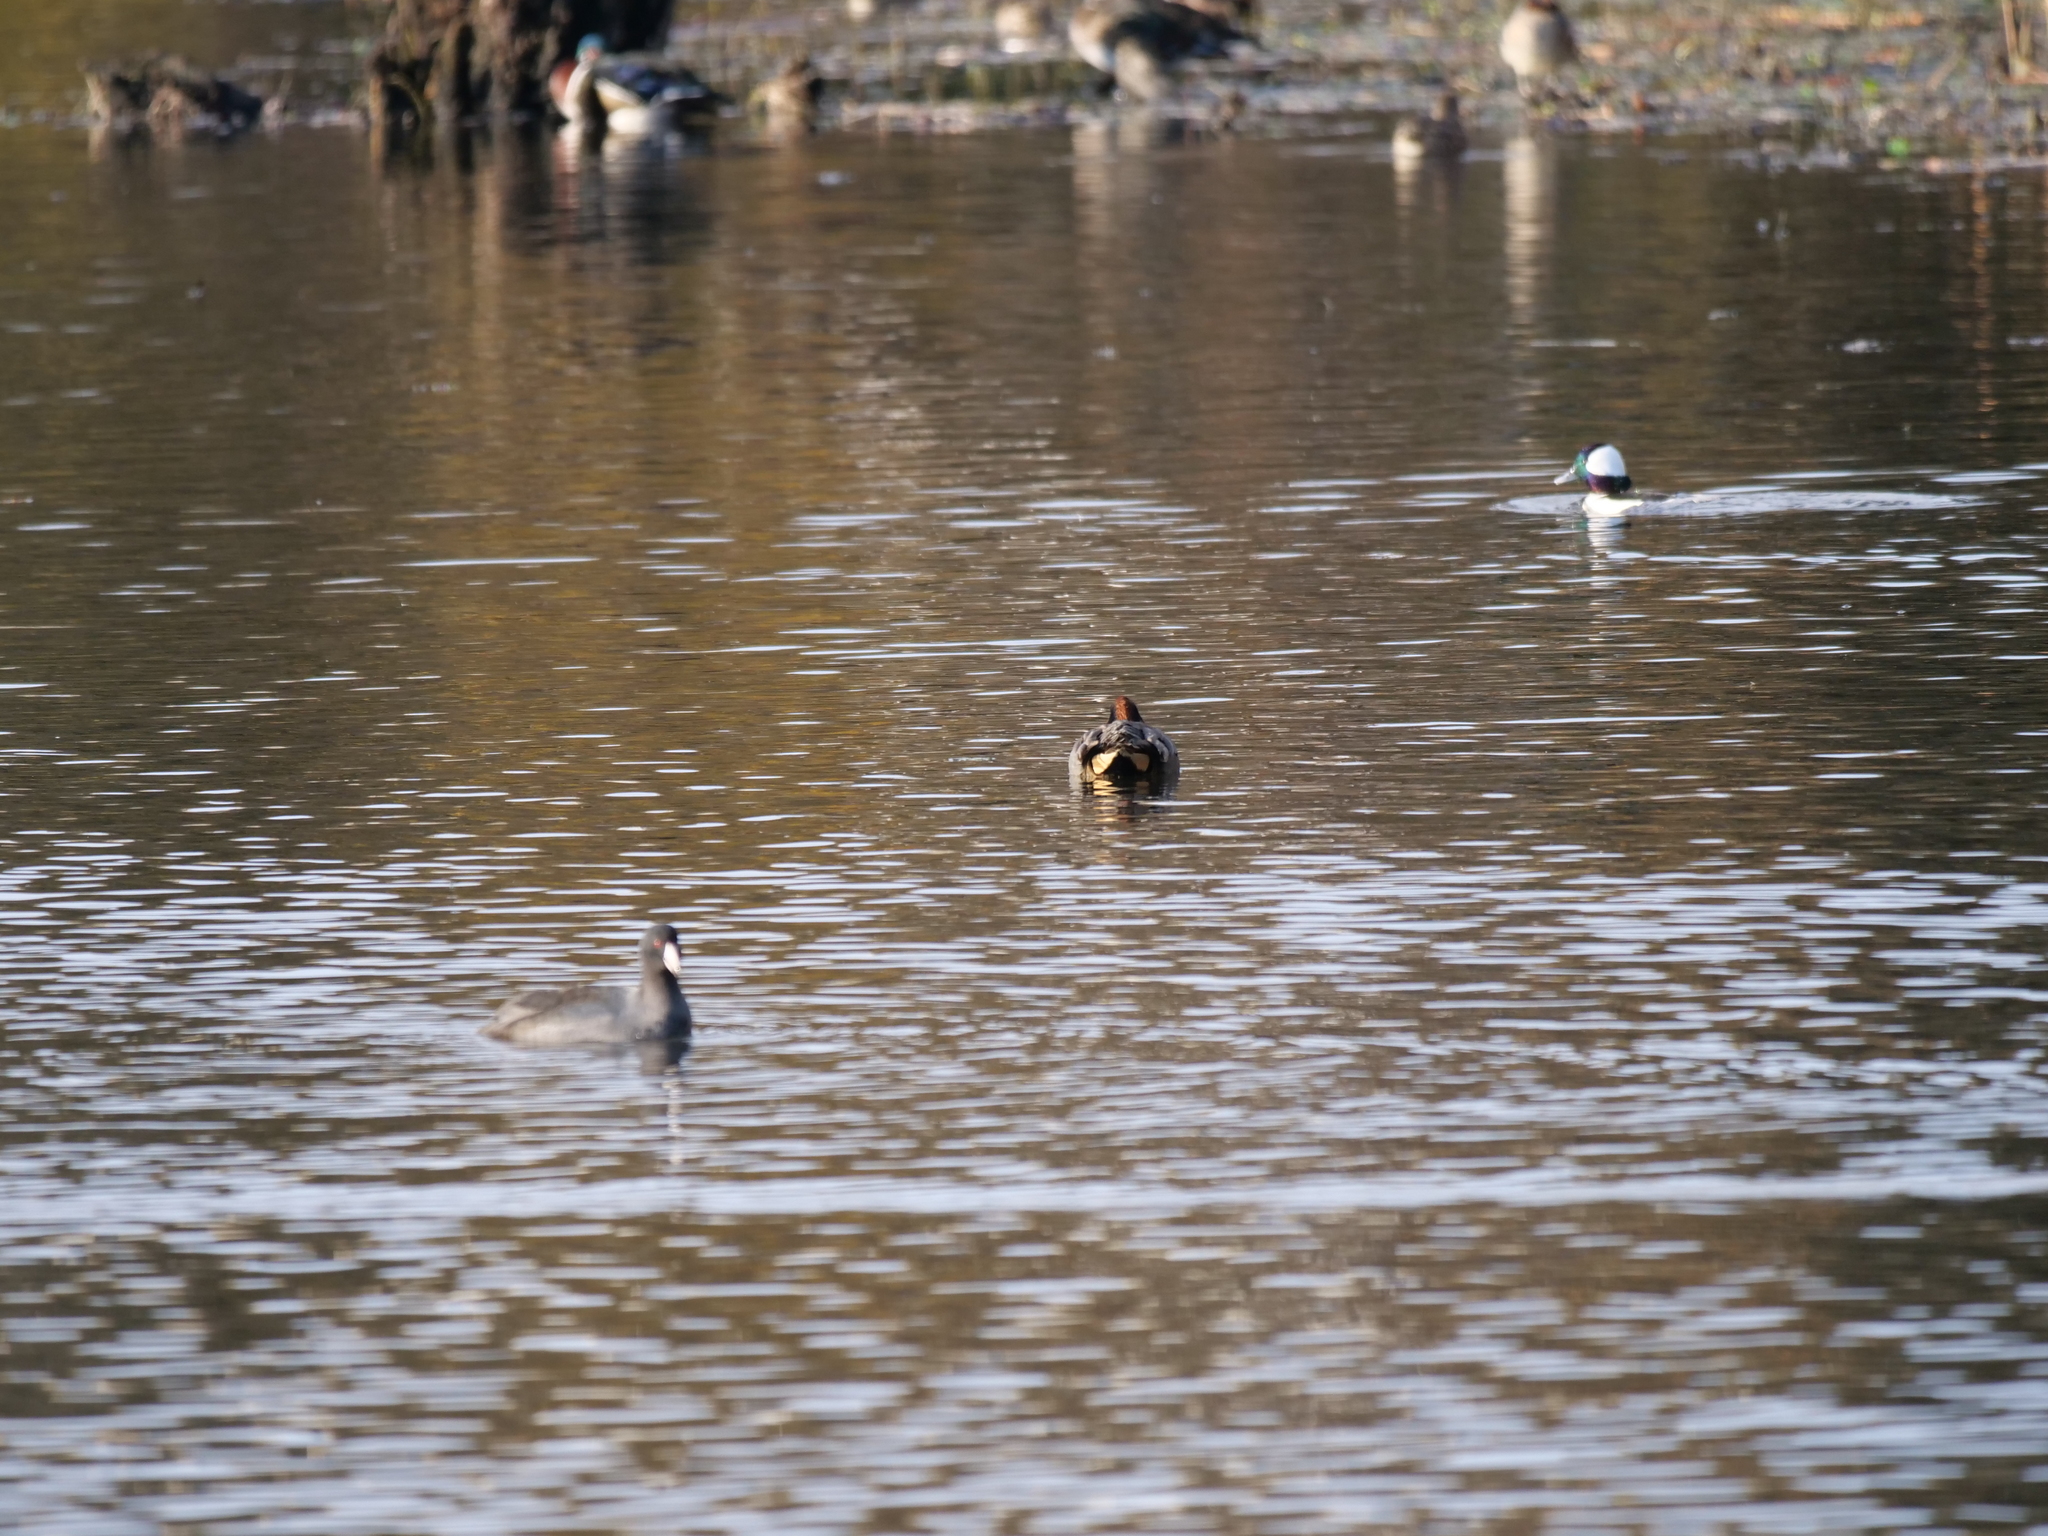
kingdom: Animalia
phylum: Chordata
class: Aves
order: Anseriformes
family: Anatidae
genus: Anas
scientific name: Anas crecca
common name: Eurasian teal
